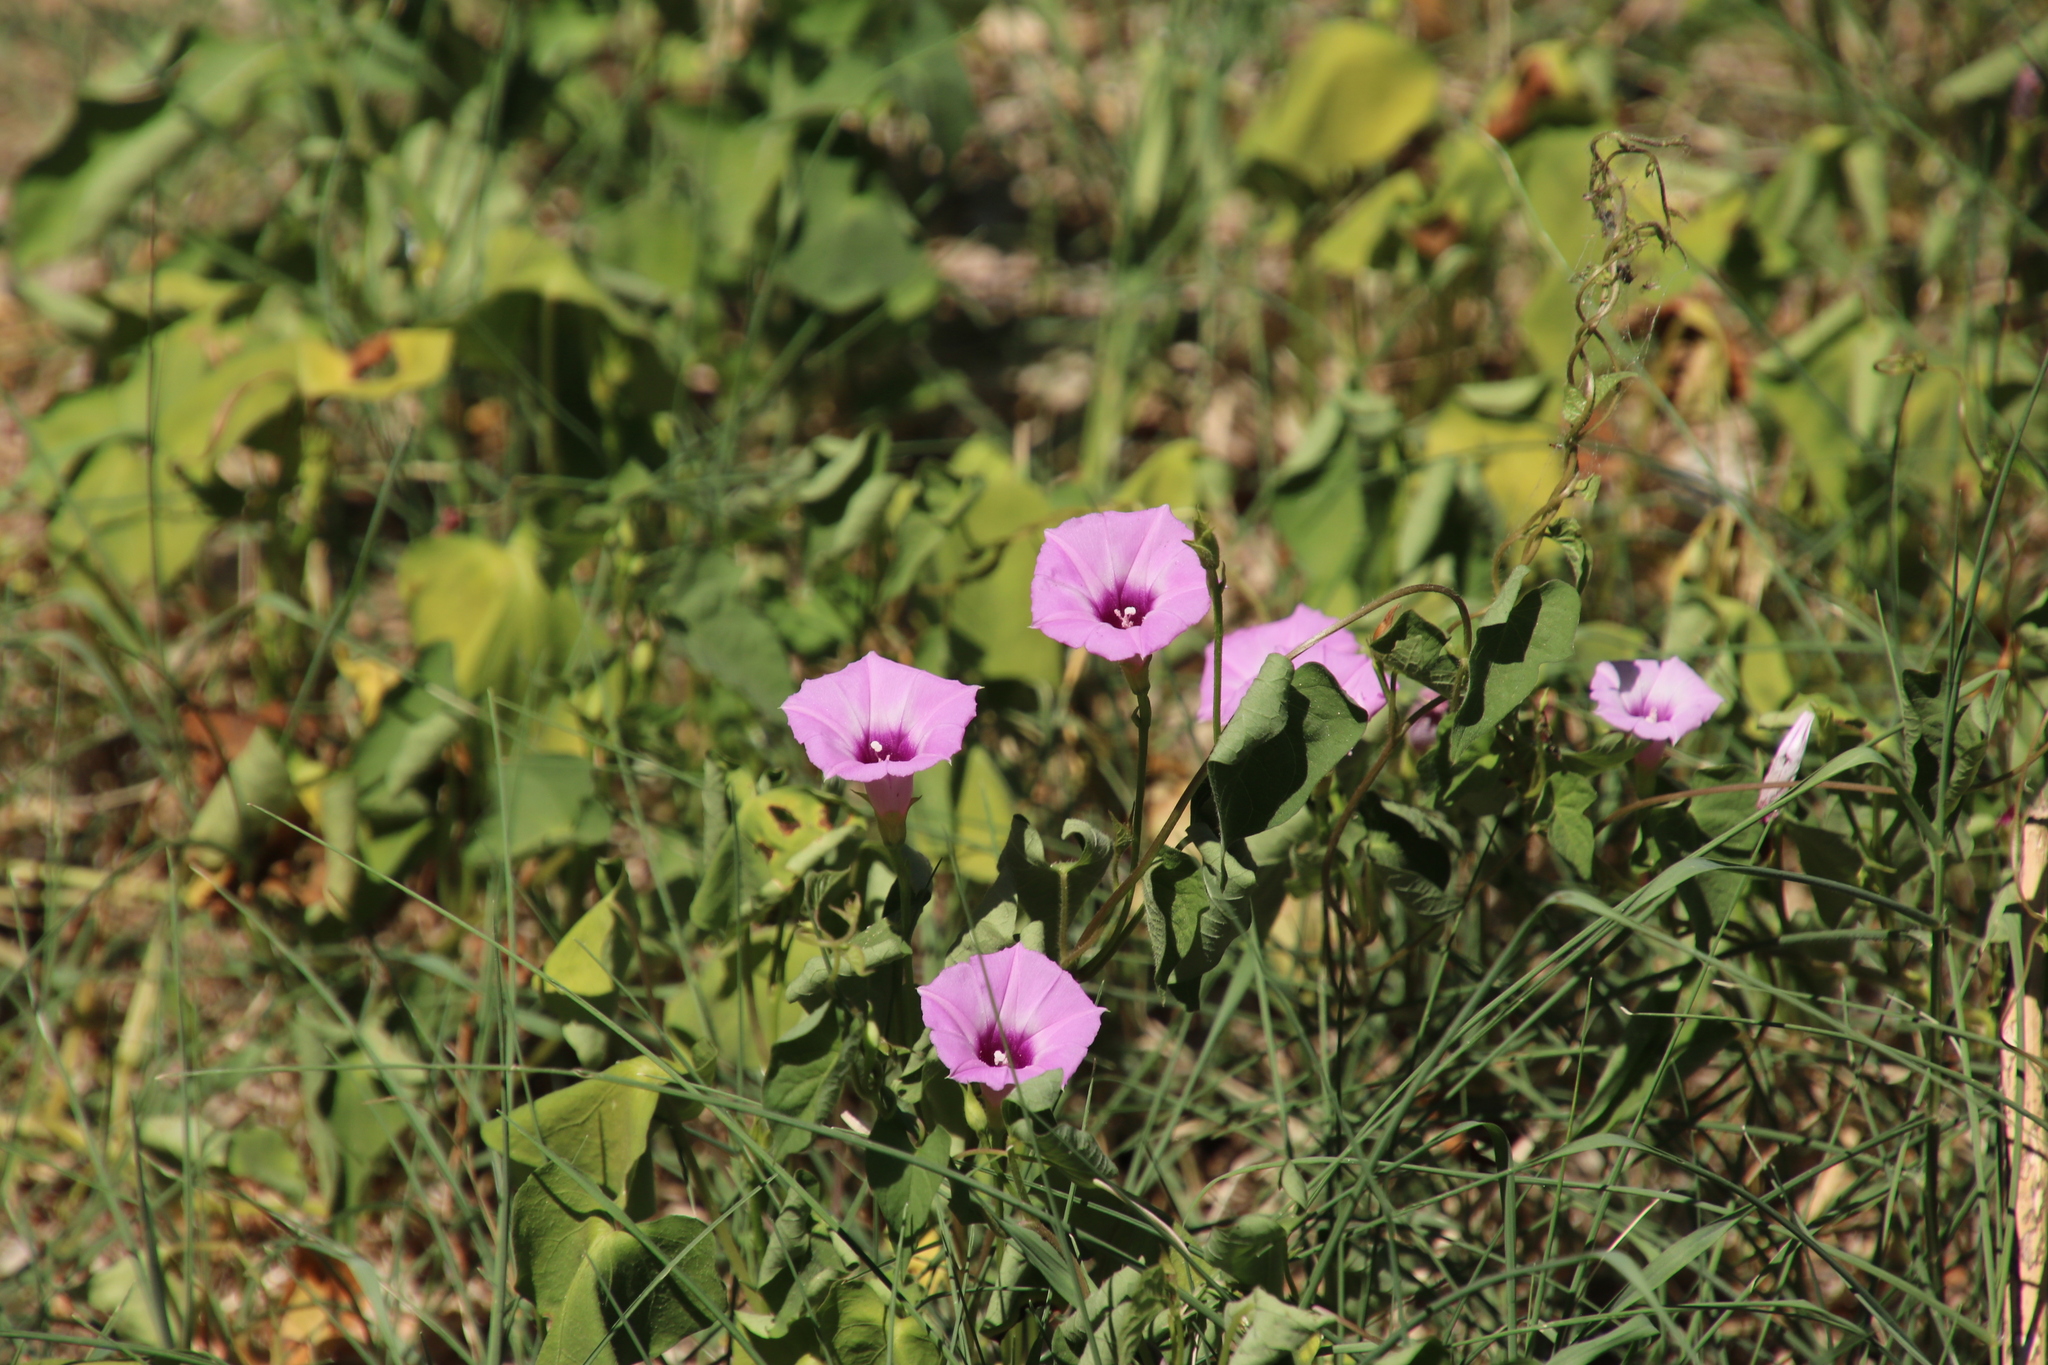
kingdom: Plantae
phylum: Tracheophyta
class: Magnoliopsida
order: Solanales
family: Convolvulaceae
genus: Ipomoea
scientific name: Ipomoea cordatotriloba
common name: Cotton morning glory
